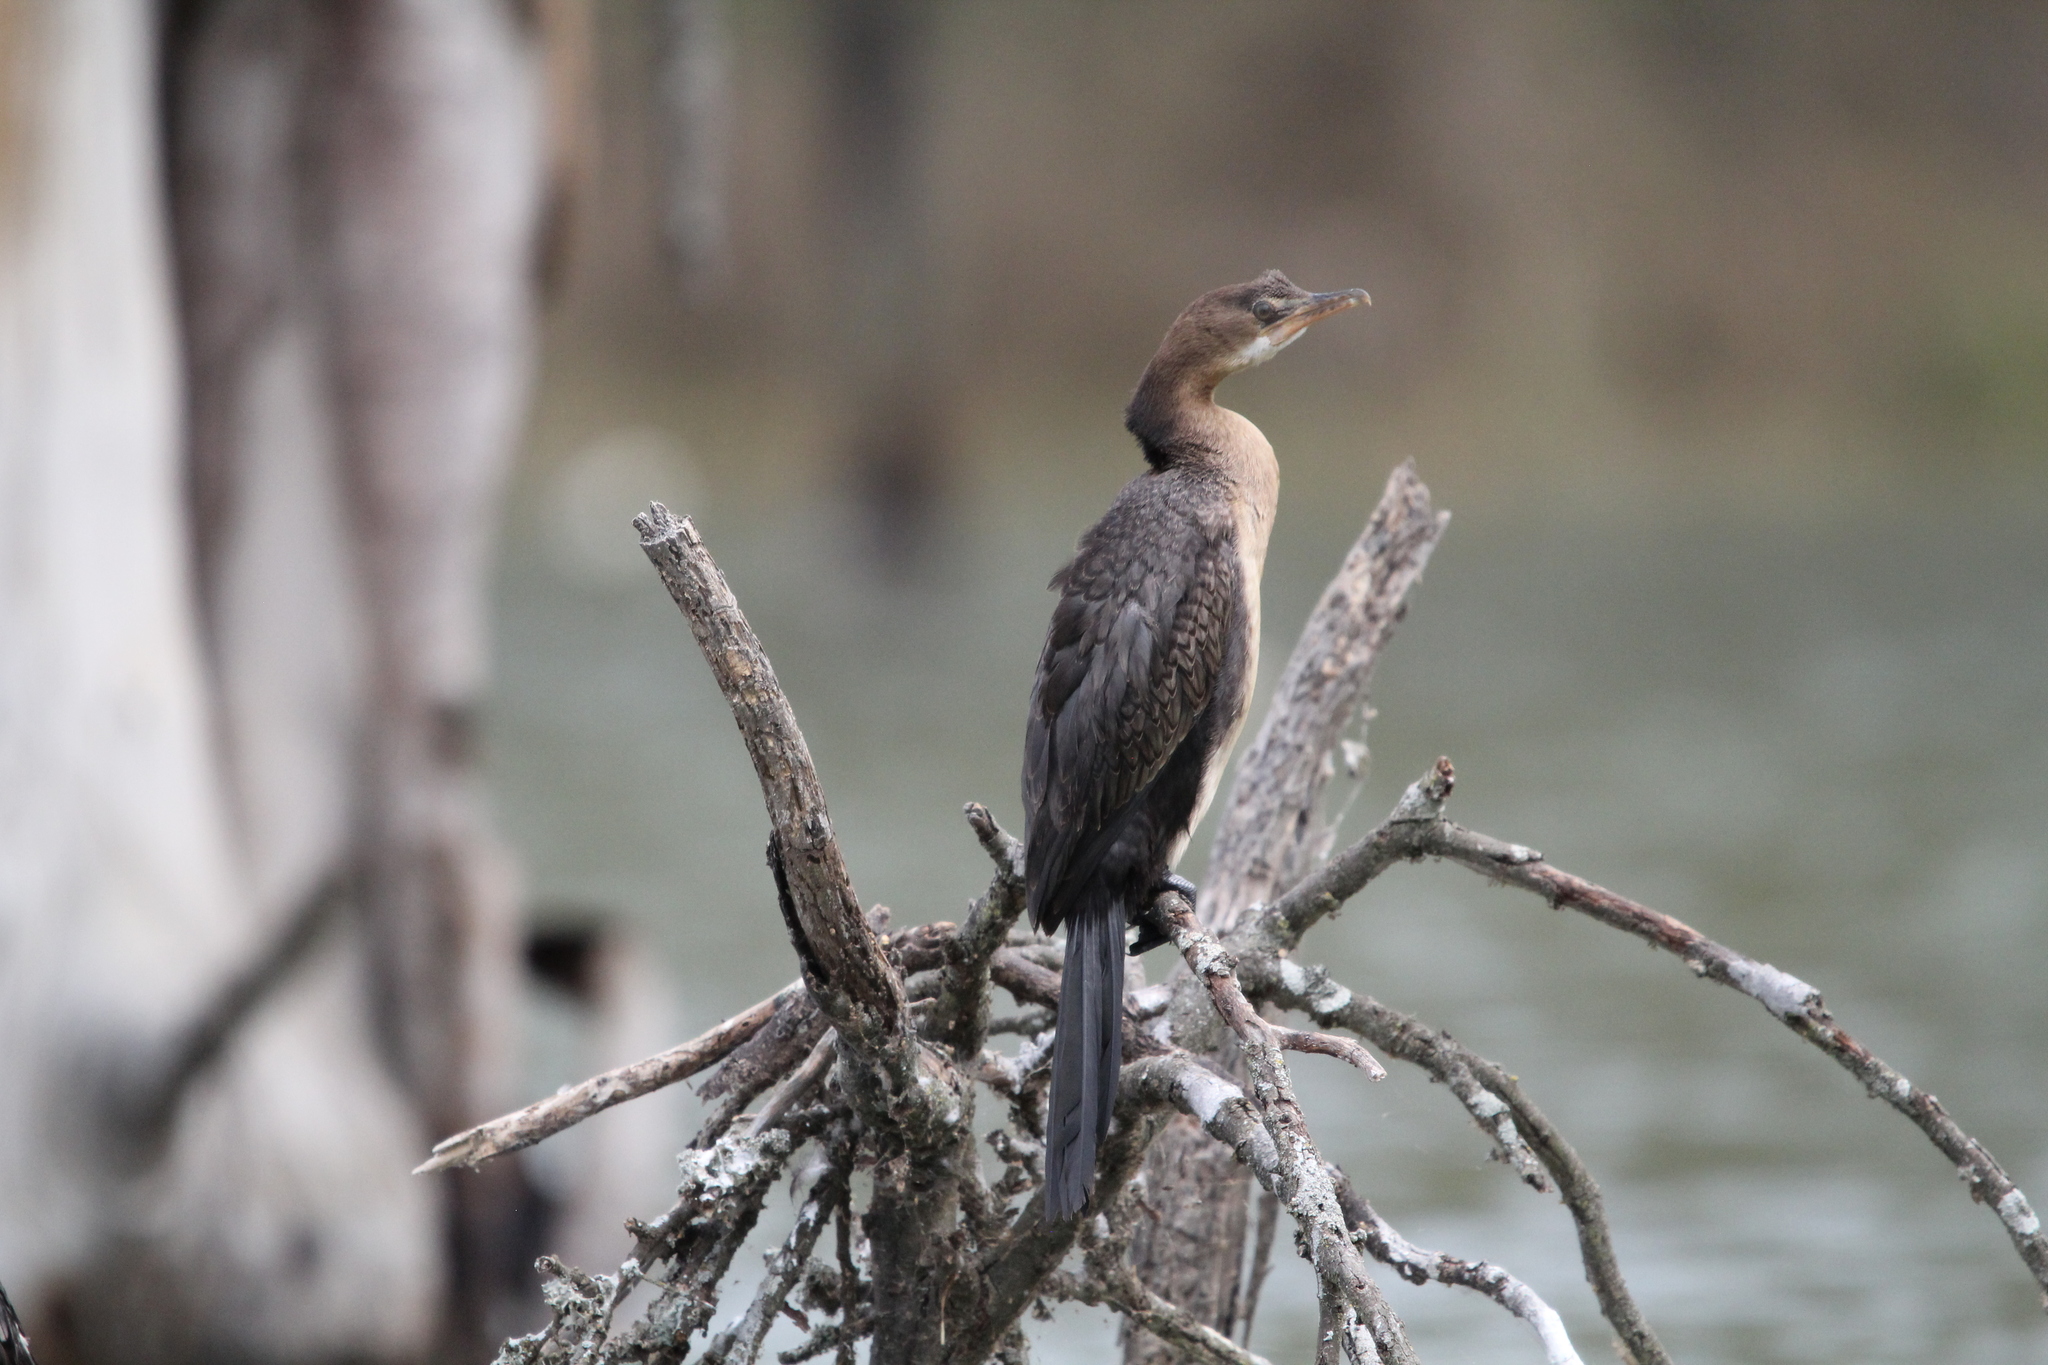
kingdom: Animalia
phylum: Chordata
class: Aves
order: Suliformes
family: Phalacrocoracidae
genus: Microcarbo
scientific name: Microcarbo africanus
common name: Long-tailed cormorant
